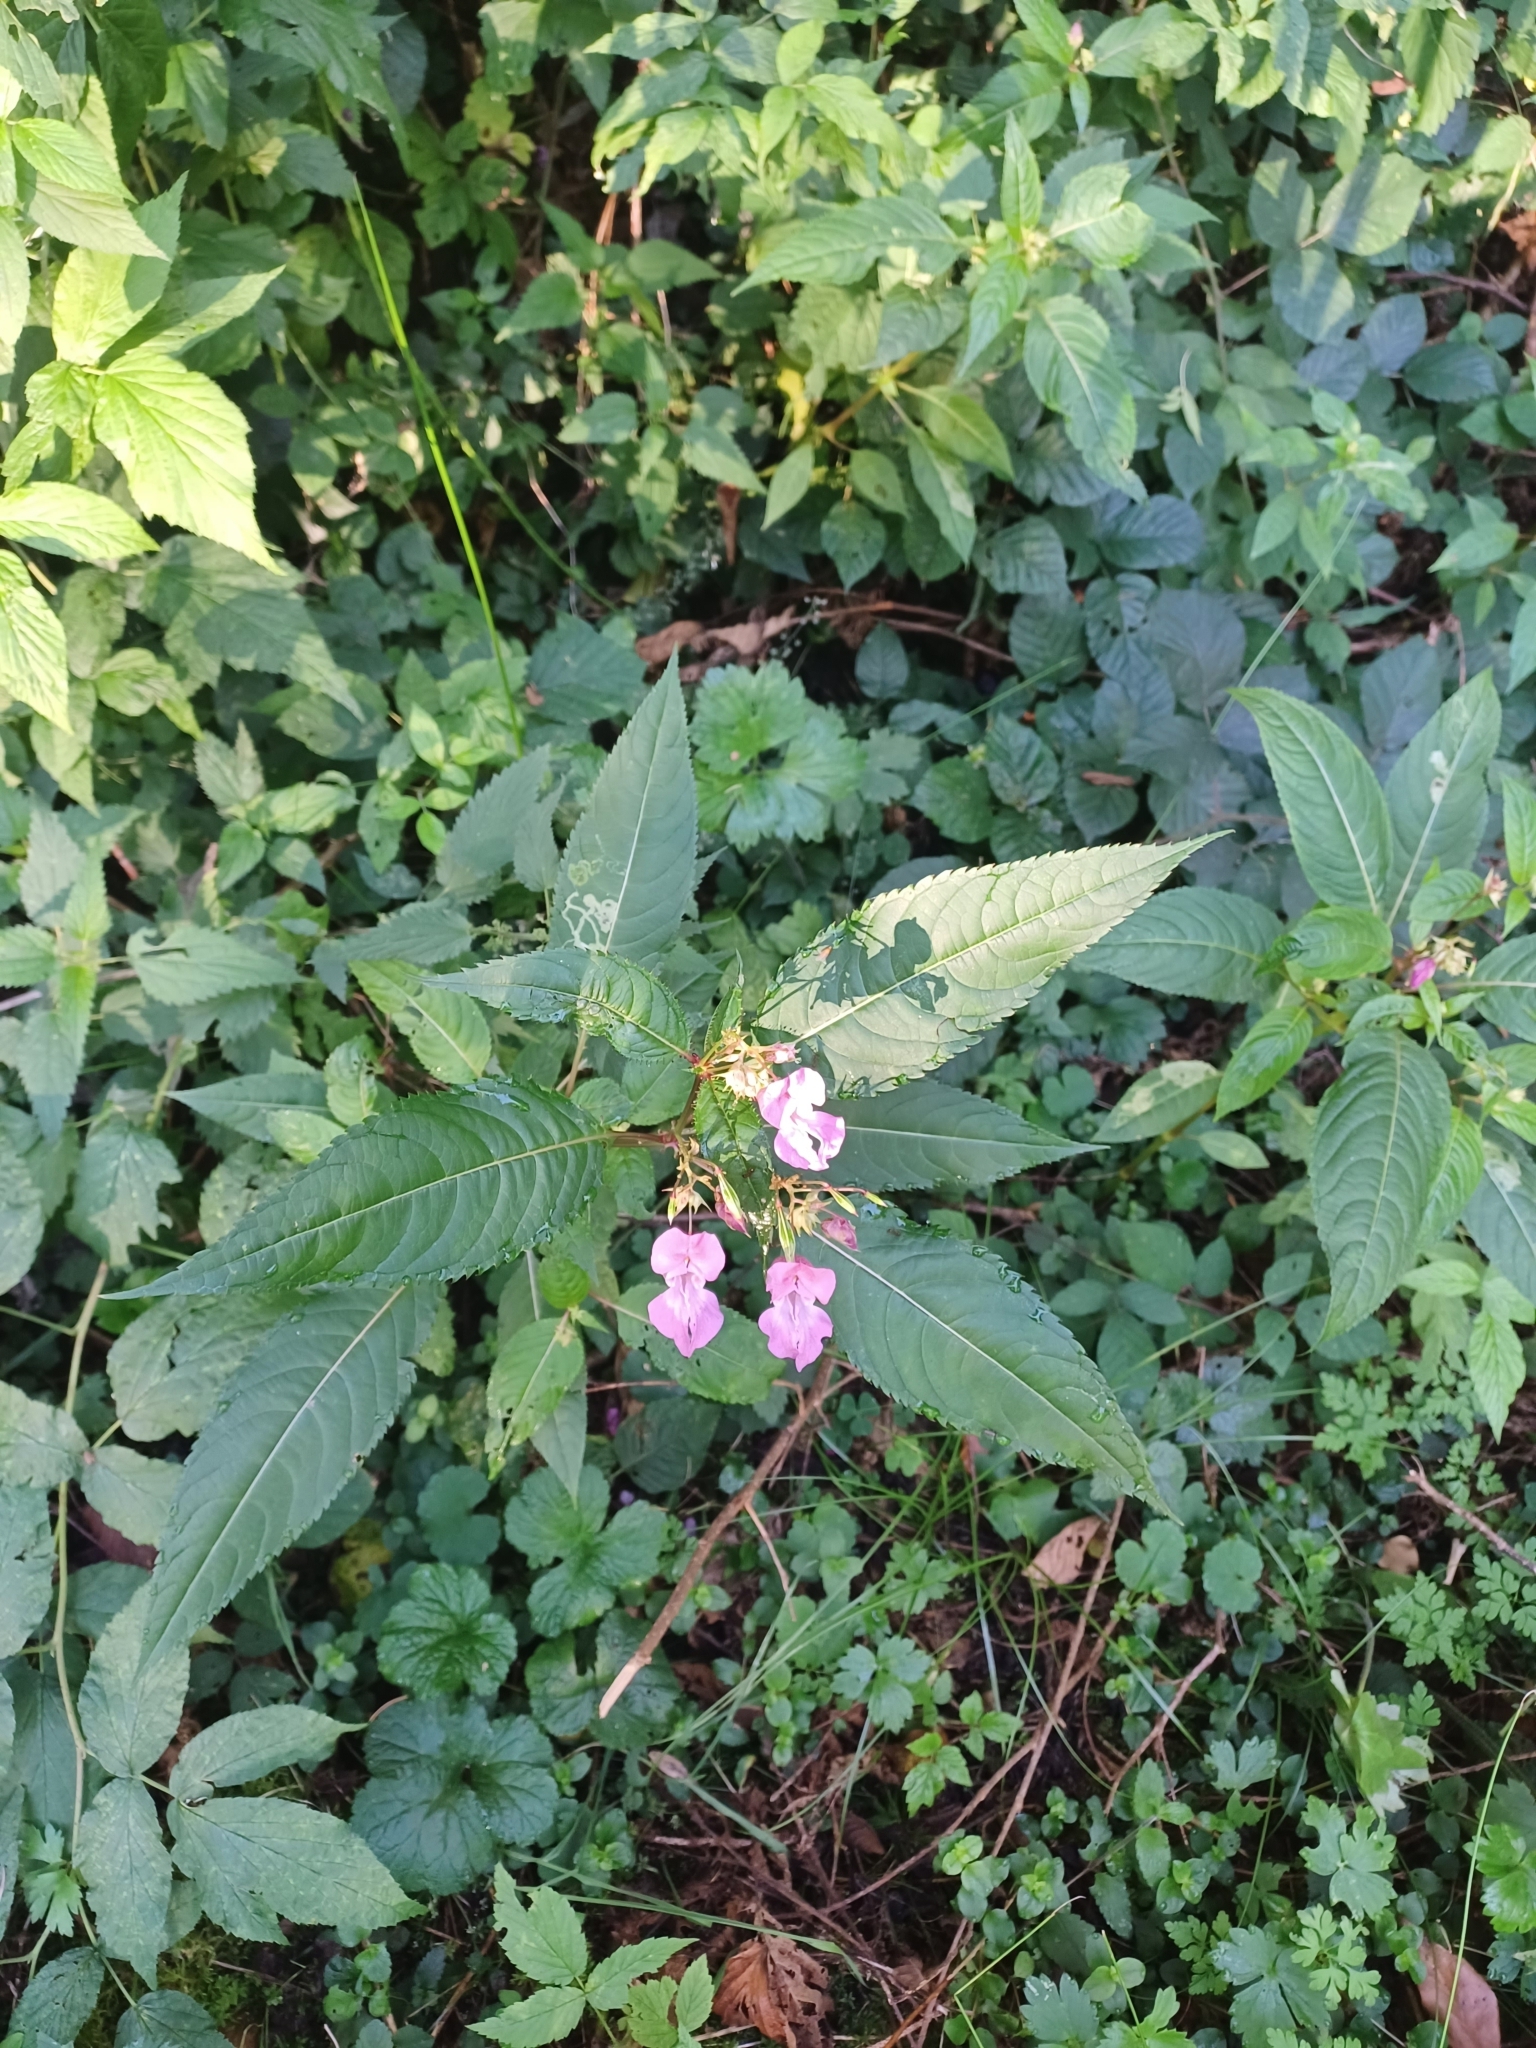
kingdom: Plantae
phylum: Tracheophyta
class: Magnoliopsida
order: Ericales
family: Balsaminaceae
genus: Impatiens
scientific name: Impatiens glandulifera
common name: Himalayan balsam
